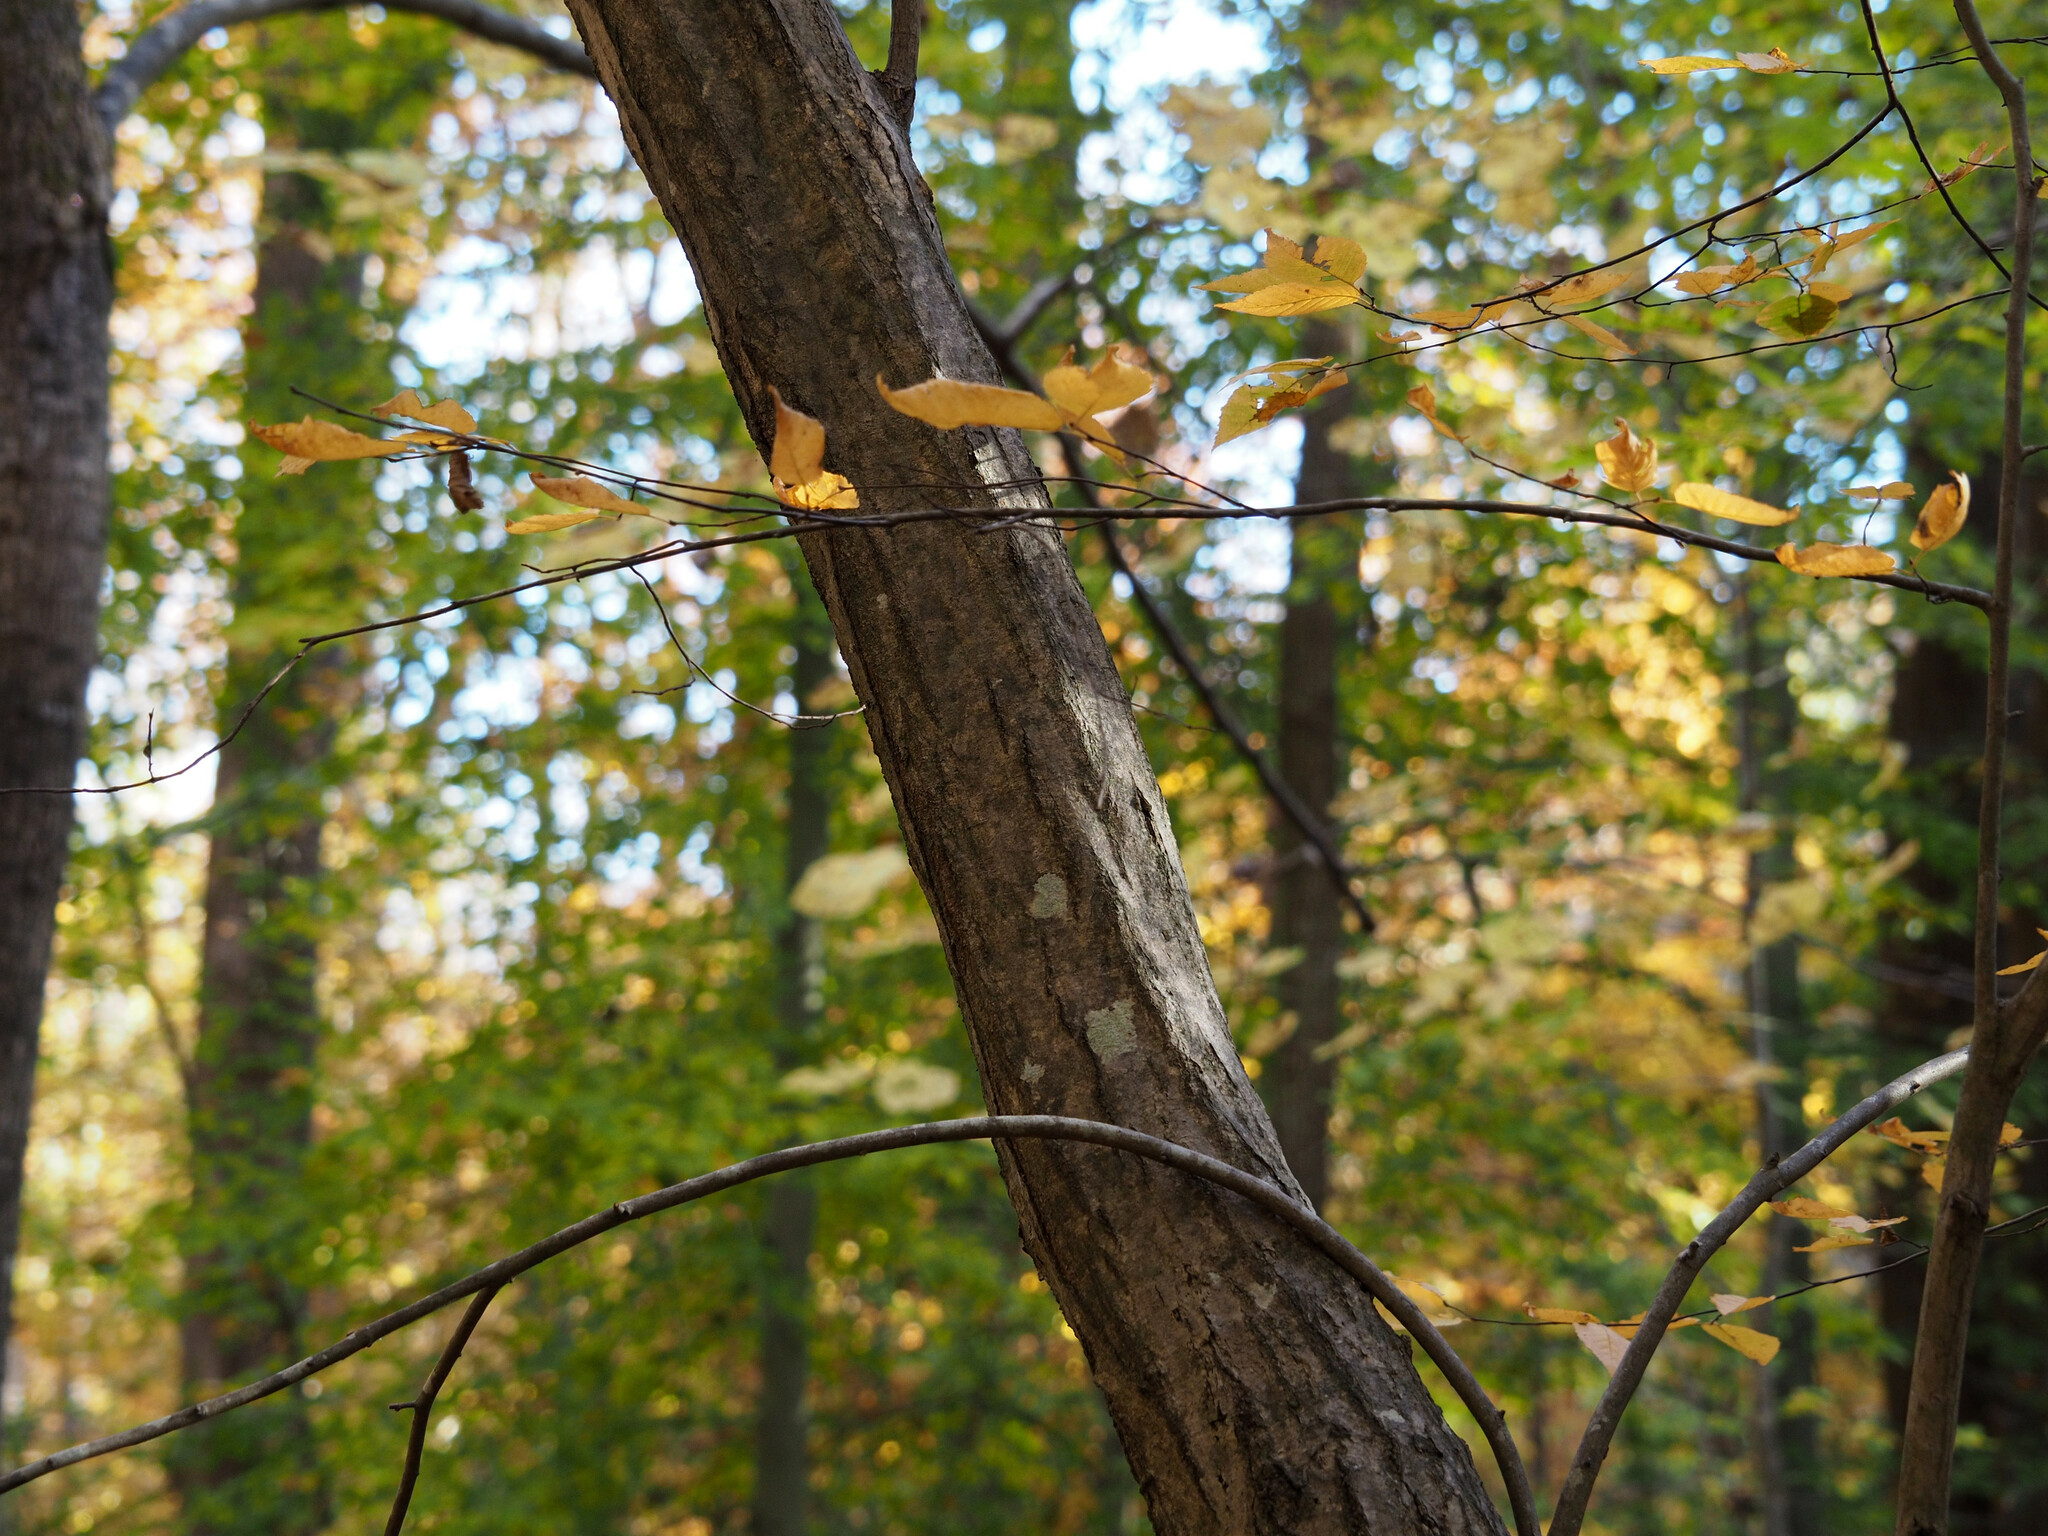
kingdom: Plantae
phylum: Tracheophyta
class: Magnoliopsida
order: Fagales
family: Betulaceae
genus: Carpinus
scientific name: Carpinus caroliniana
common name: American hornbeam
